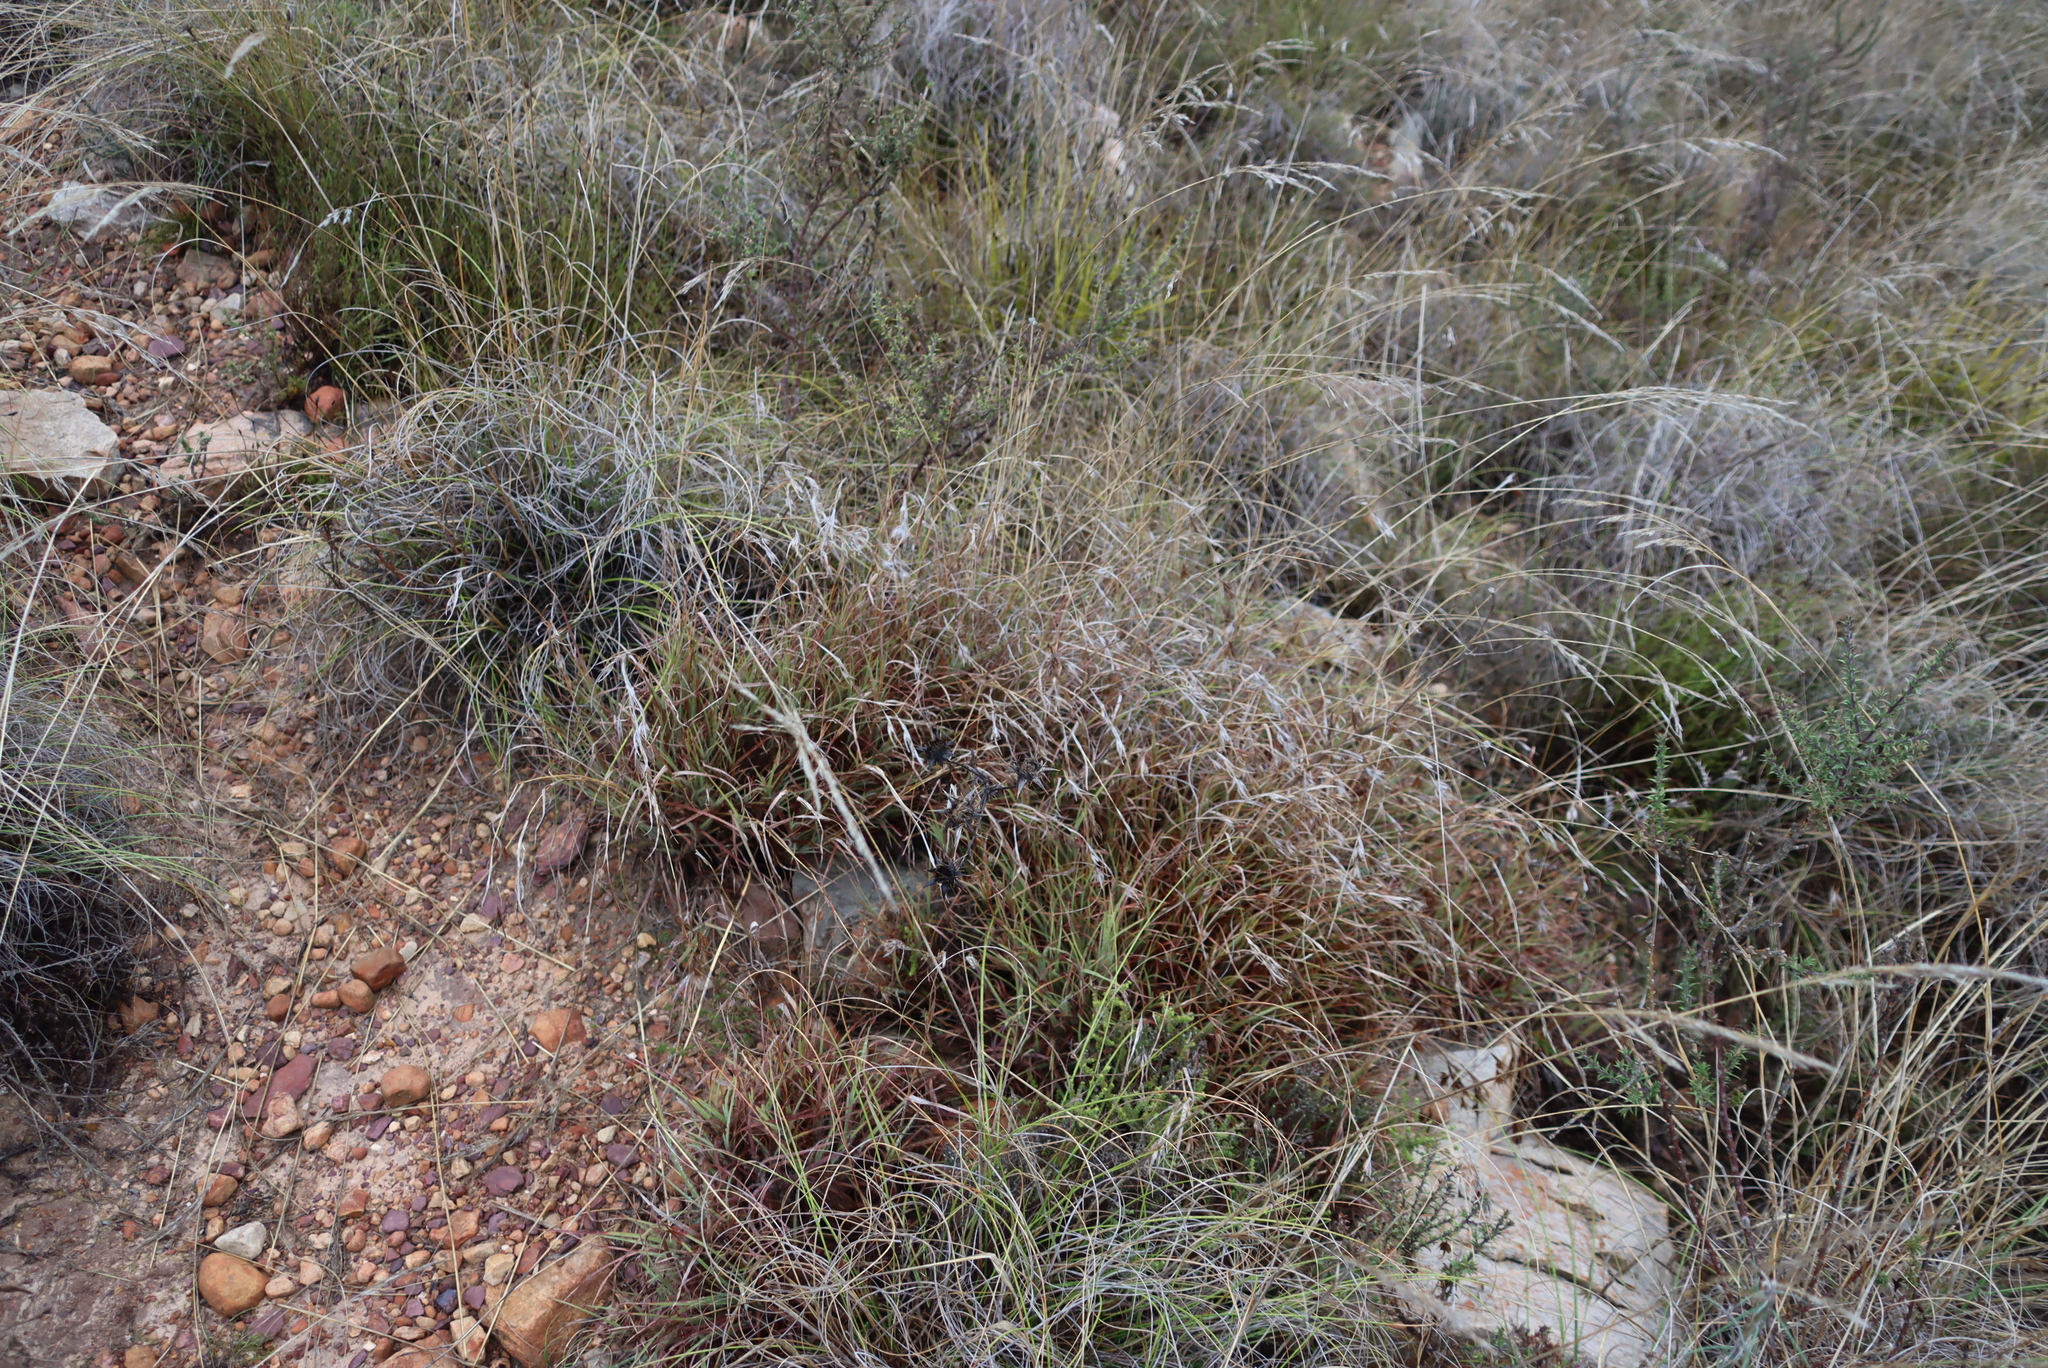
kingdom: Plantae
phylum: Tracheophyta
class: Liliopsida
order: Poales
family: Poaceae
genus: Themeda
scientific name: Themeda triandra
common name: Kangaroo grass
